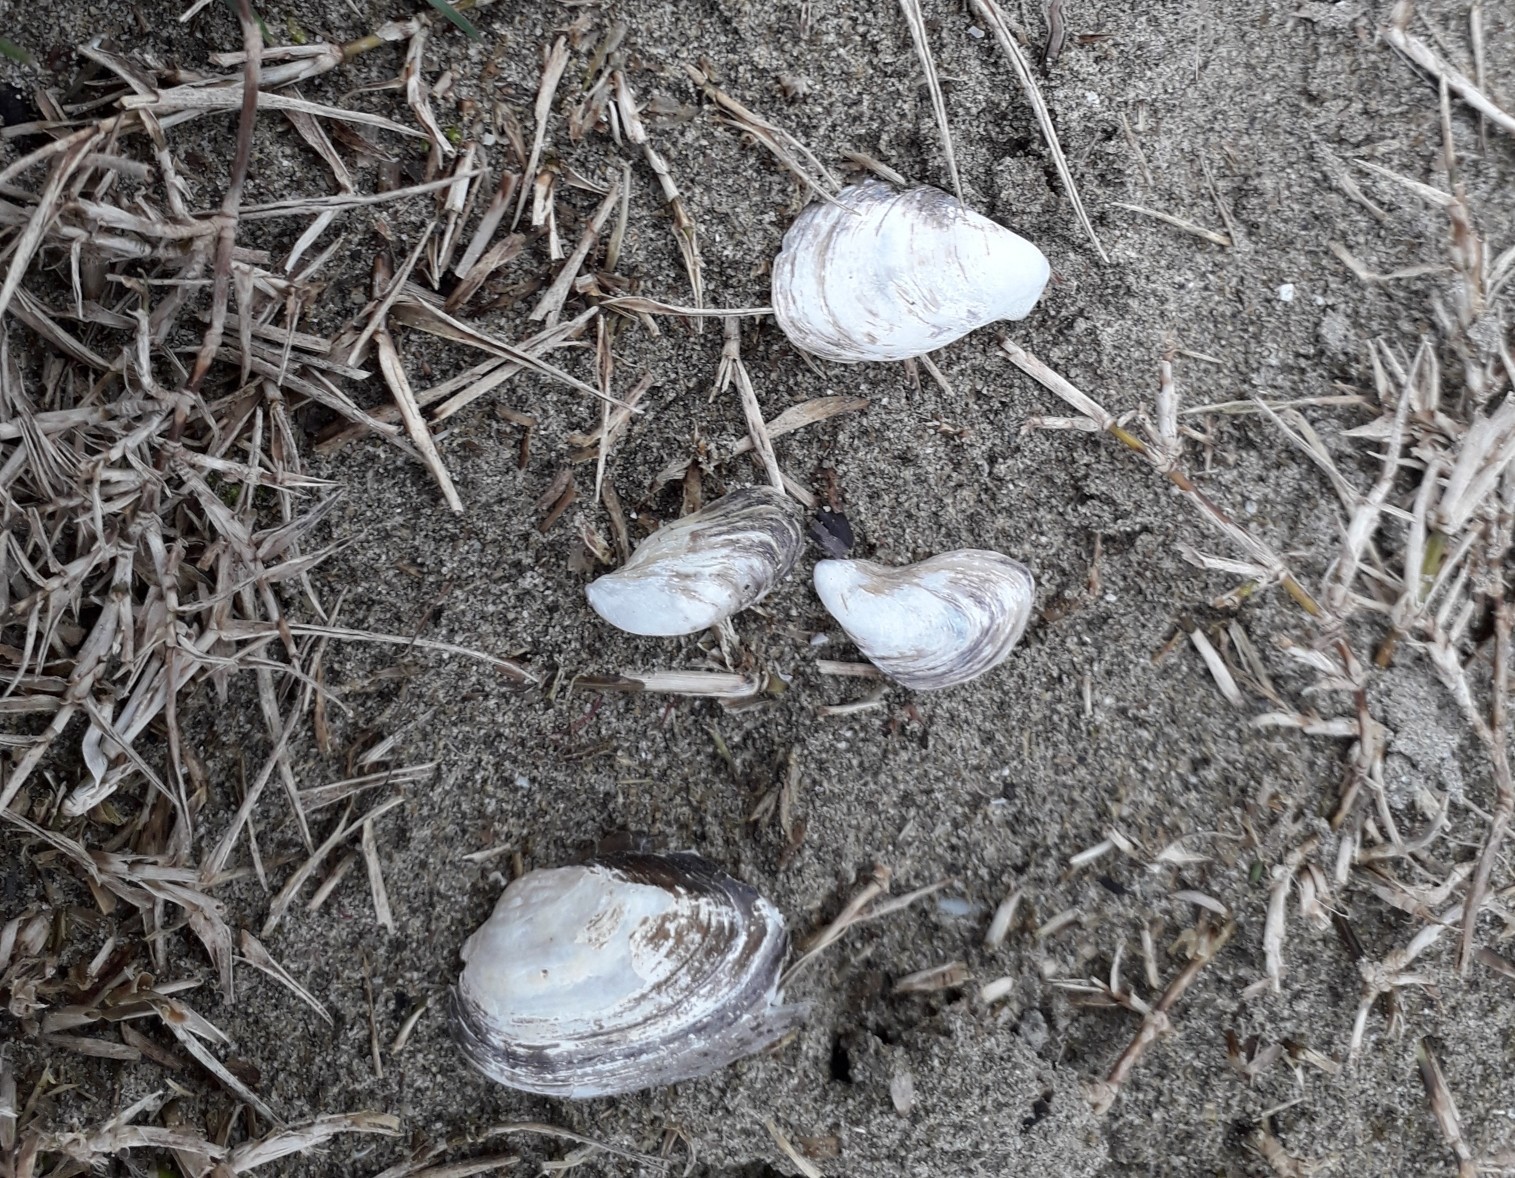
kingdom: Animalia
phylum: Mollusca
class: Bivalvia
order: Myida
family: Dreissenidae
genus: Dreissena
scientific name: Dreissena bugensis
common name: Quagga mussel
